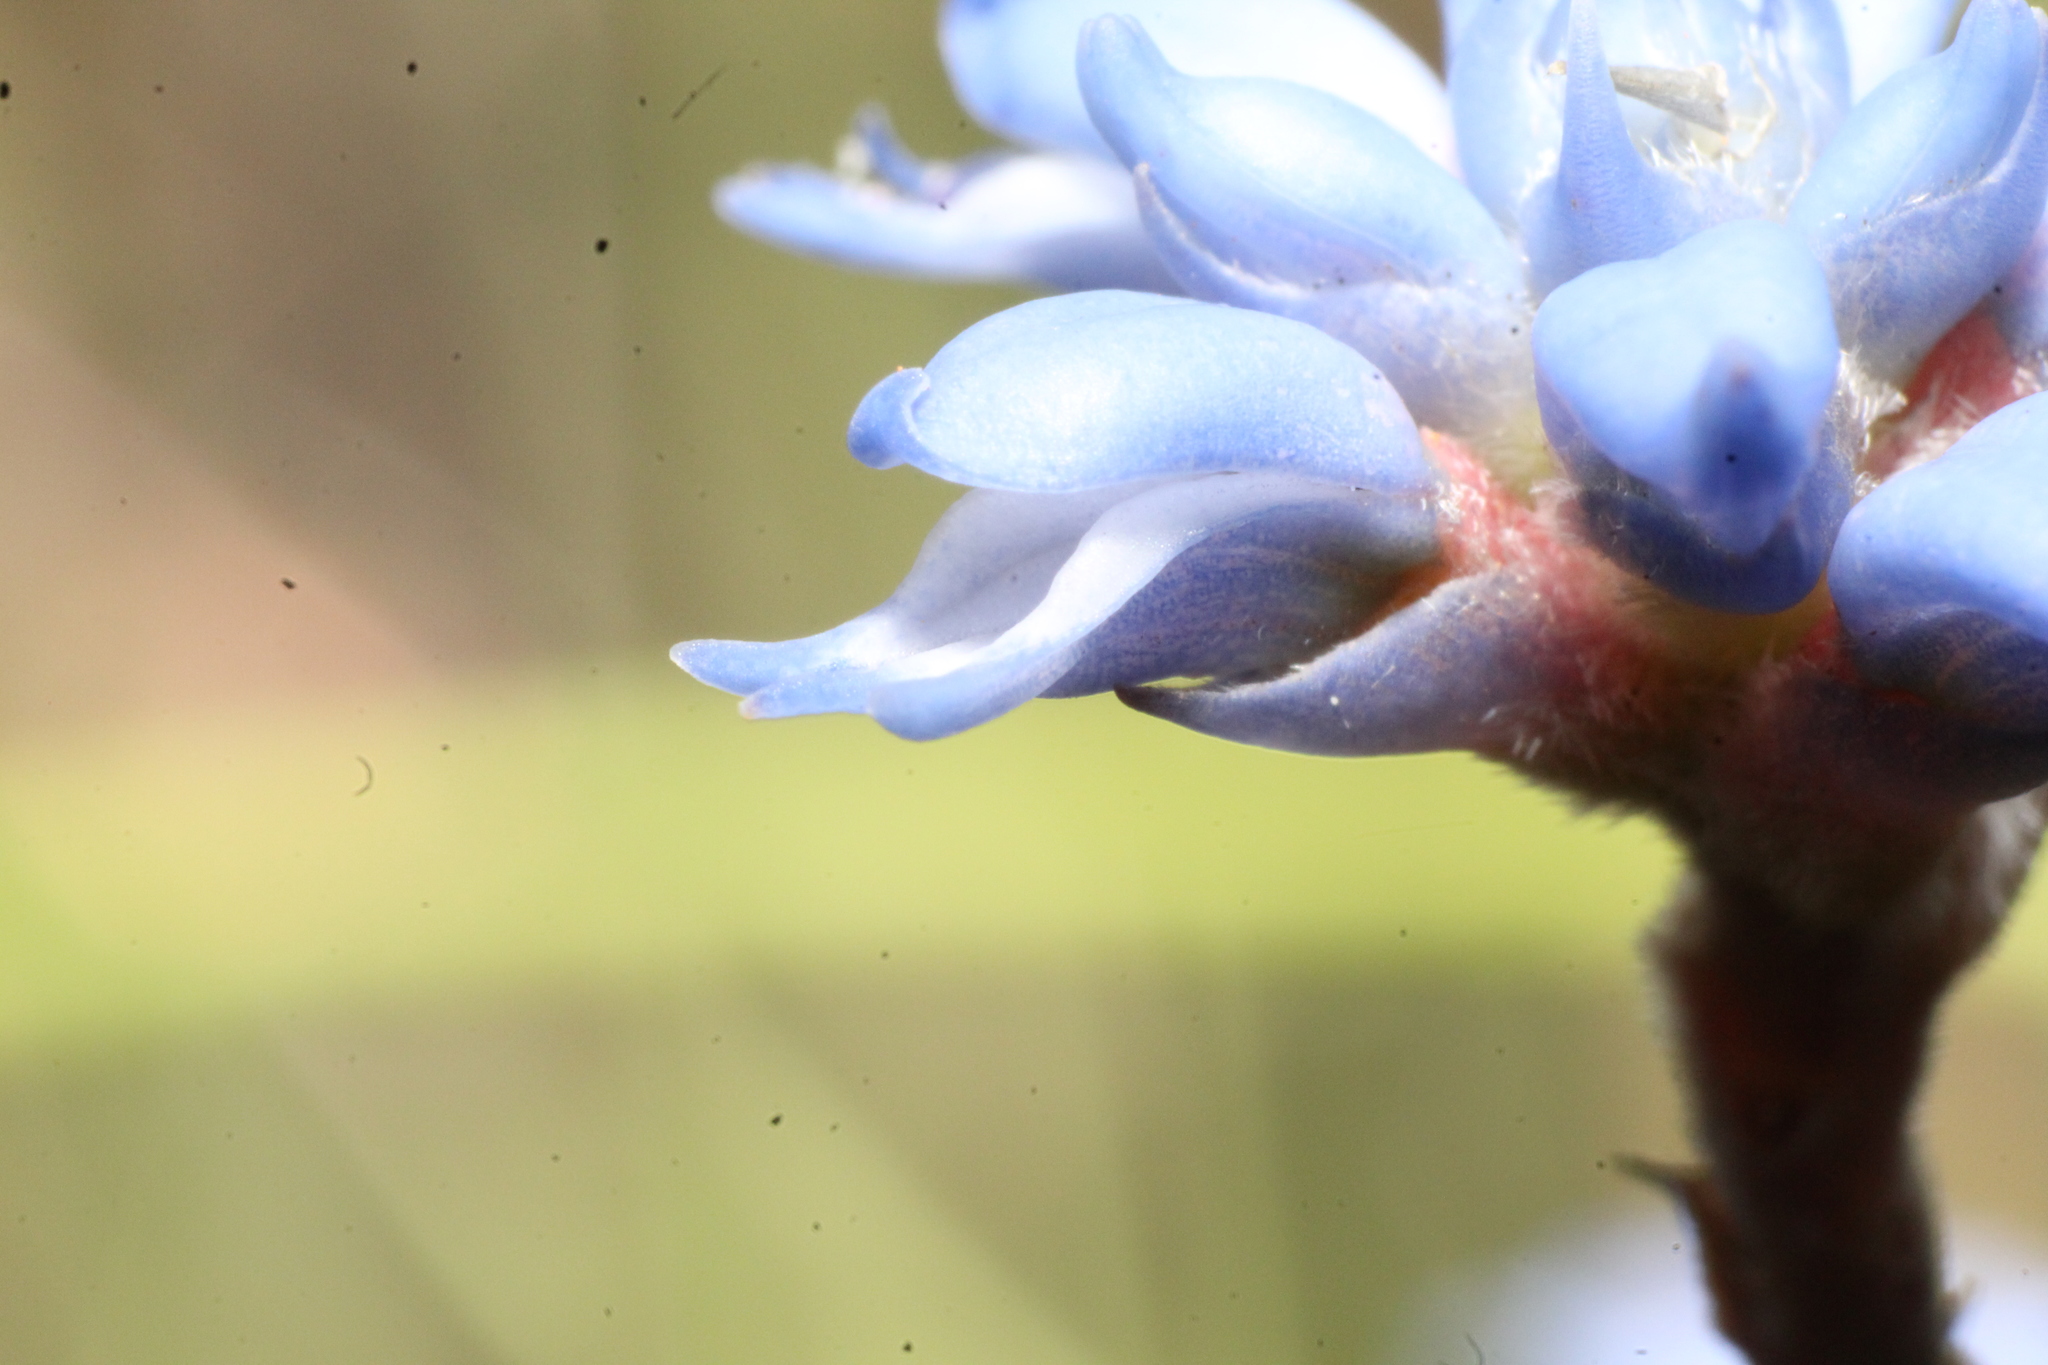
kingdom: Plantae
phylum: Tracheophyta
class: Magnoliopsida
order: Proteales
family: Proteaceae
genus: Conospermum
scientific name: Conospermum caeruleum
